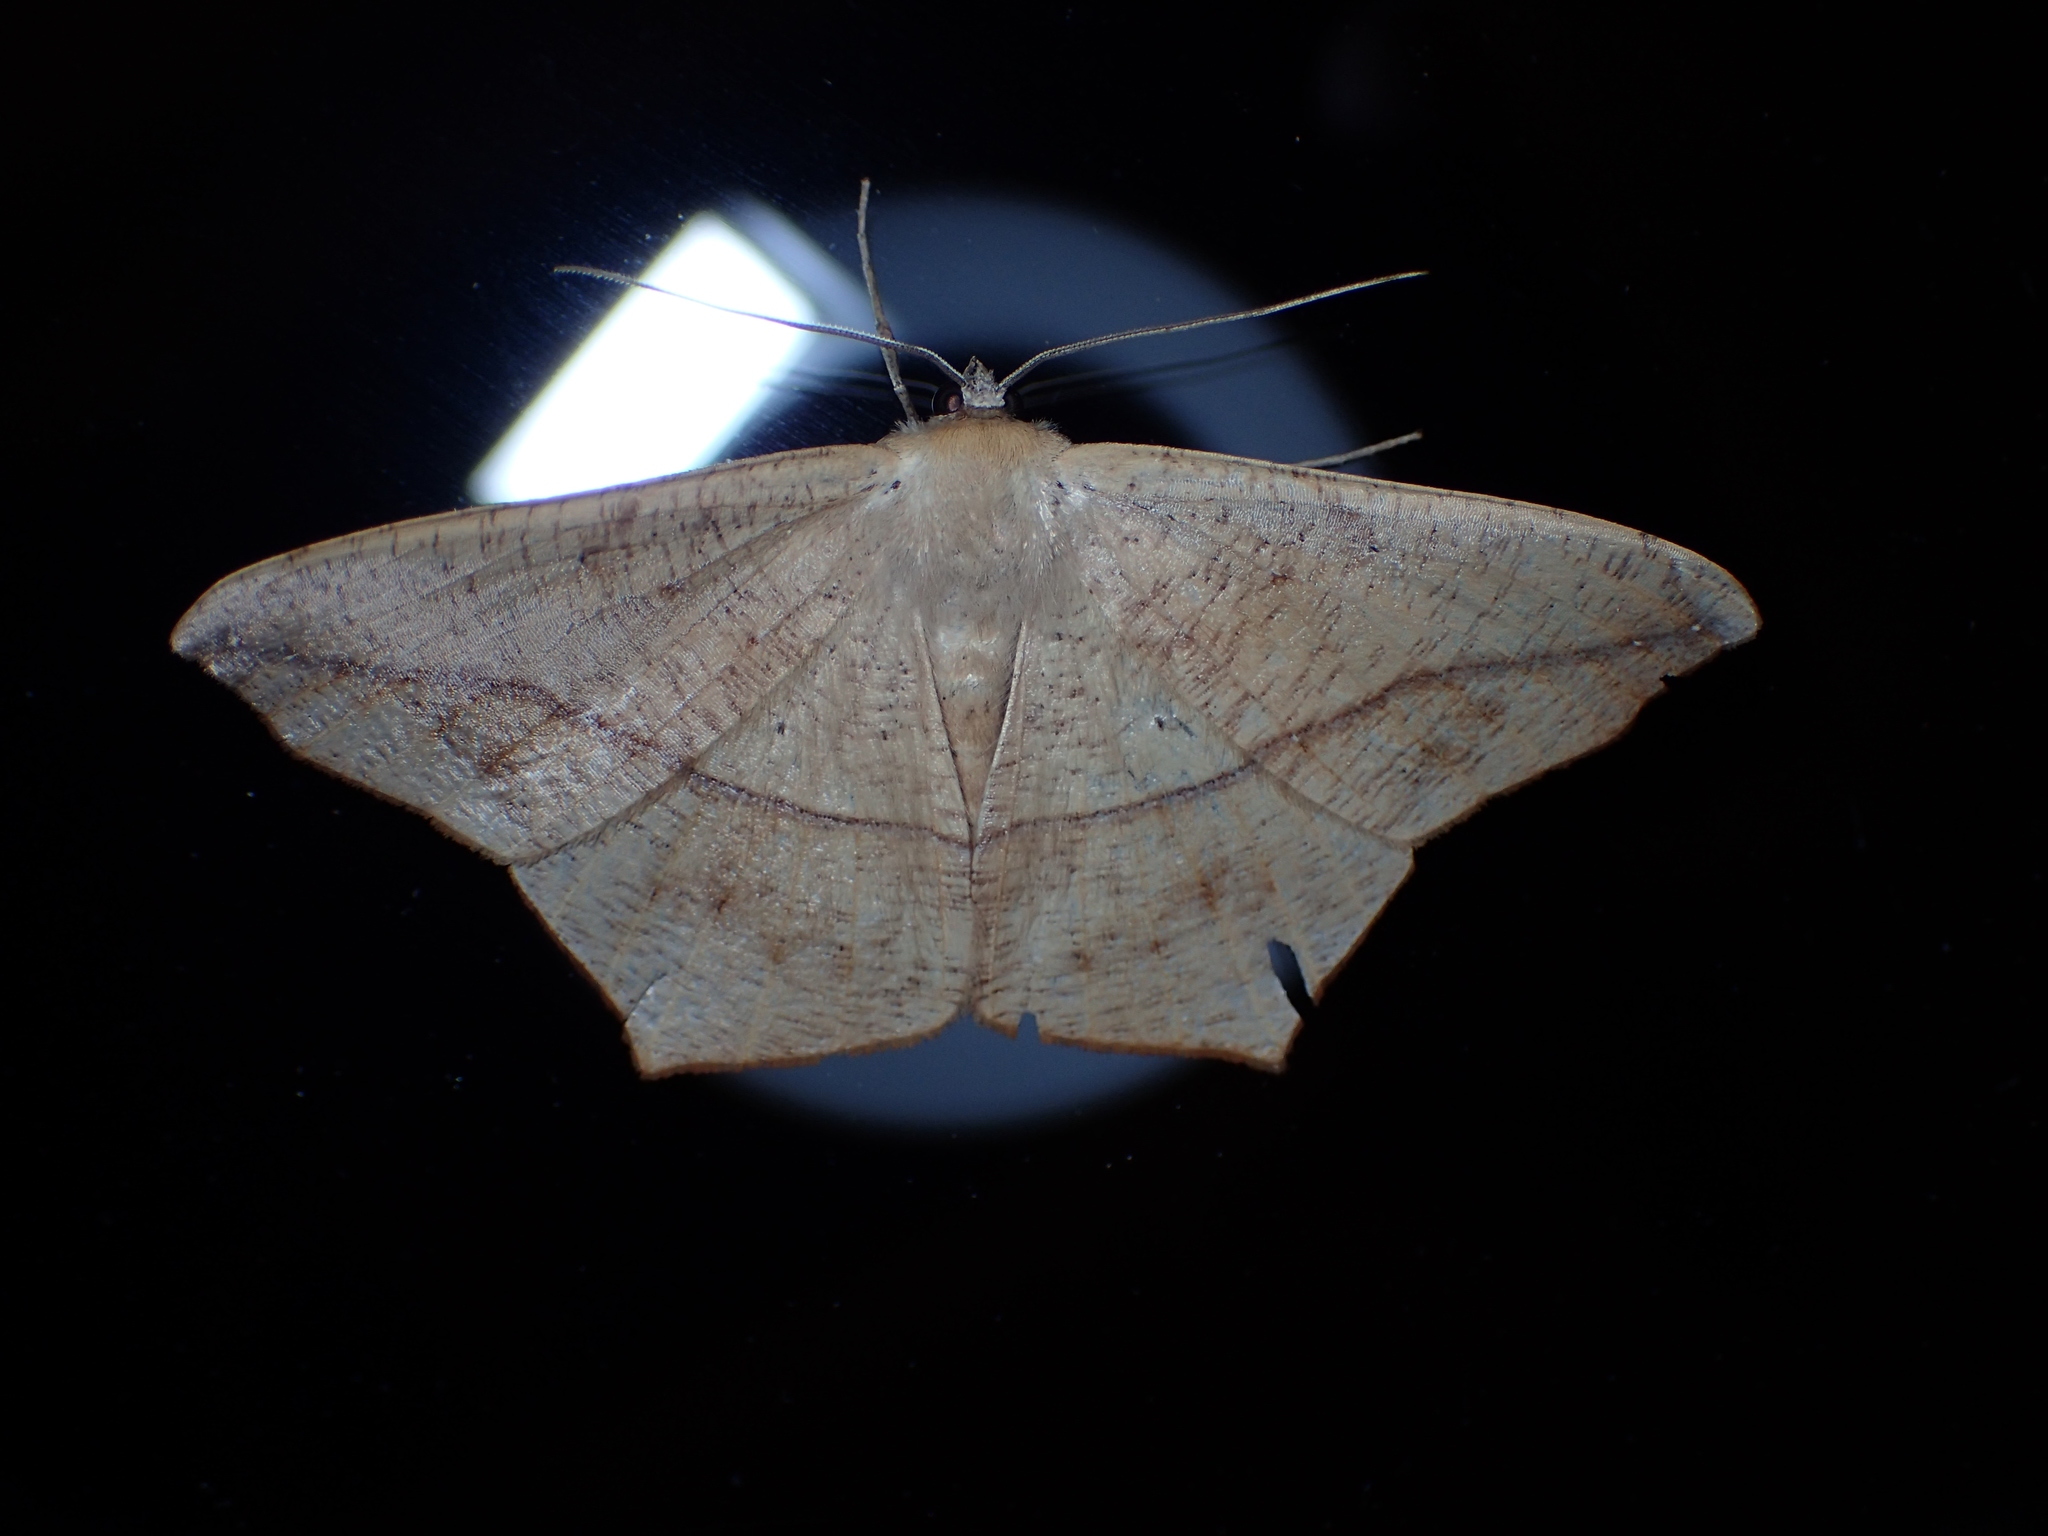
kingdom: Animalia
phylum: Arthropoda
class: Insecta
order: Lepidoptera
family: Geometridae
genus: Prochoerodes
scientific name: Prochoerodes lineola
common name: Large maple spanworm
